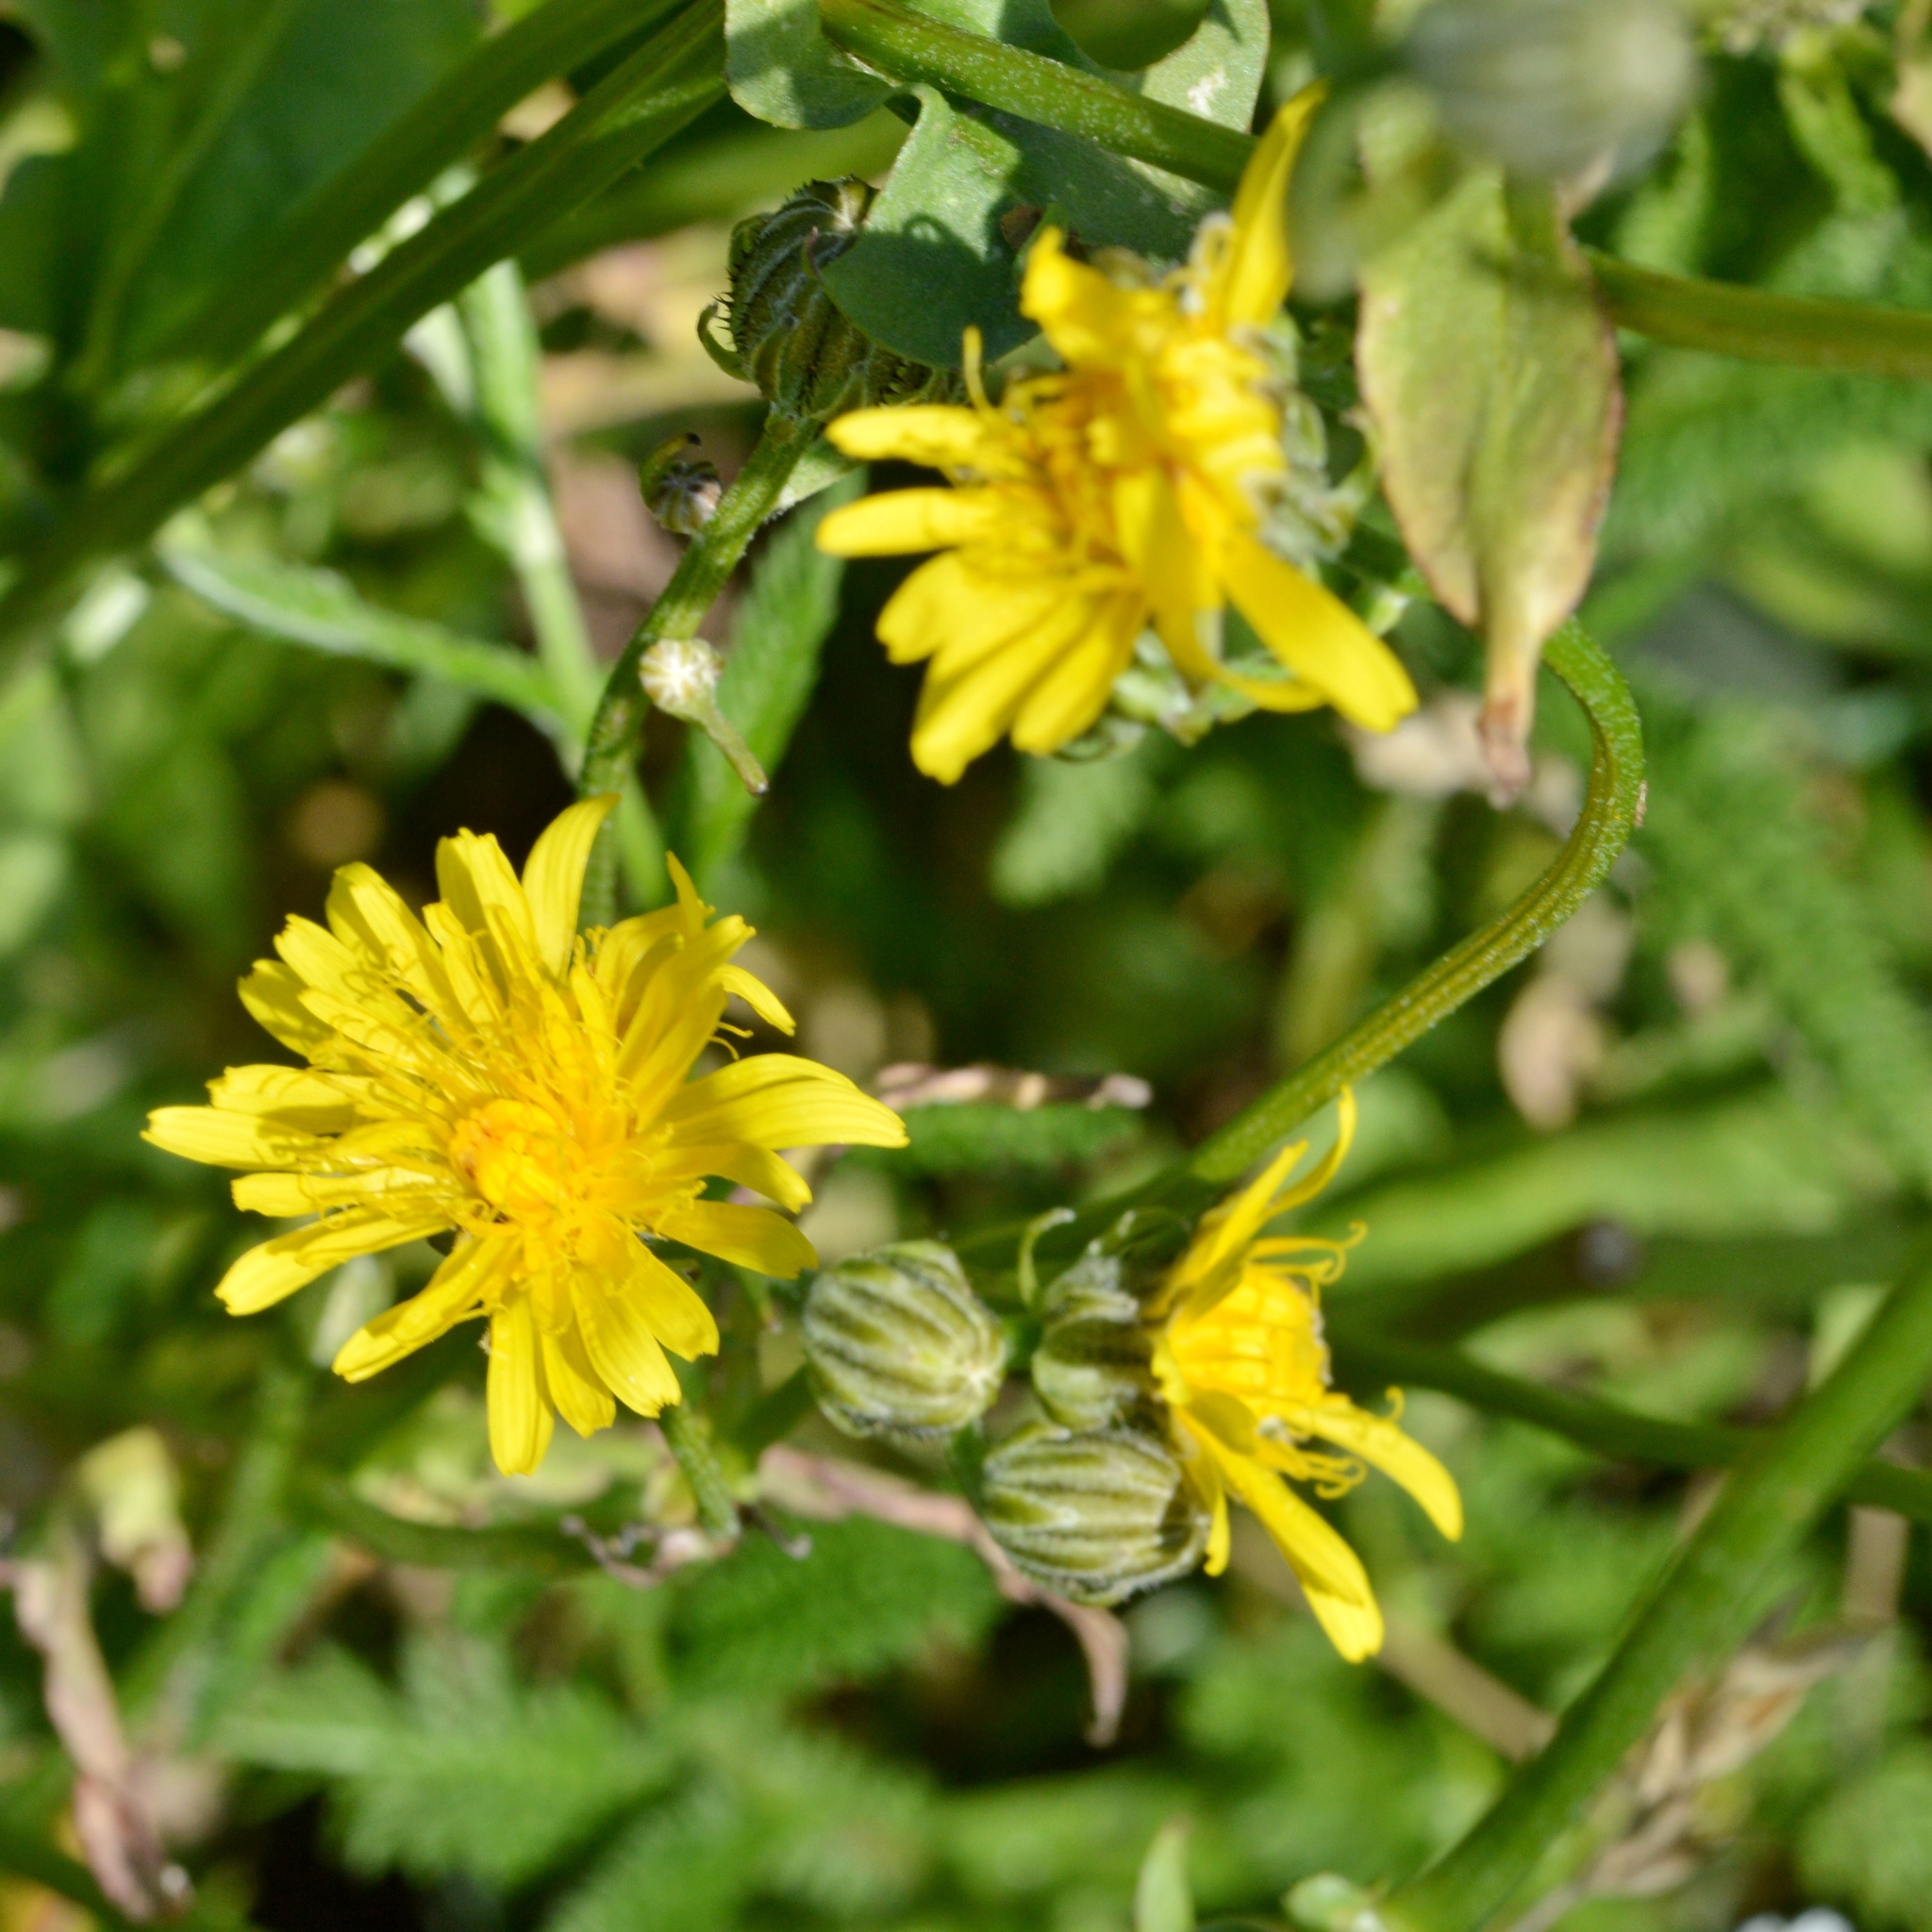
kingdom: Plantae
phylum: Tracheophyta
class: Magnoliopsida
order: Asterales
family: Asteraceae
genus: Crepis
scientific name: Crepis biennis
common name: Rough hawk's-beard
